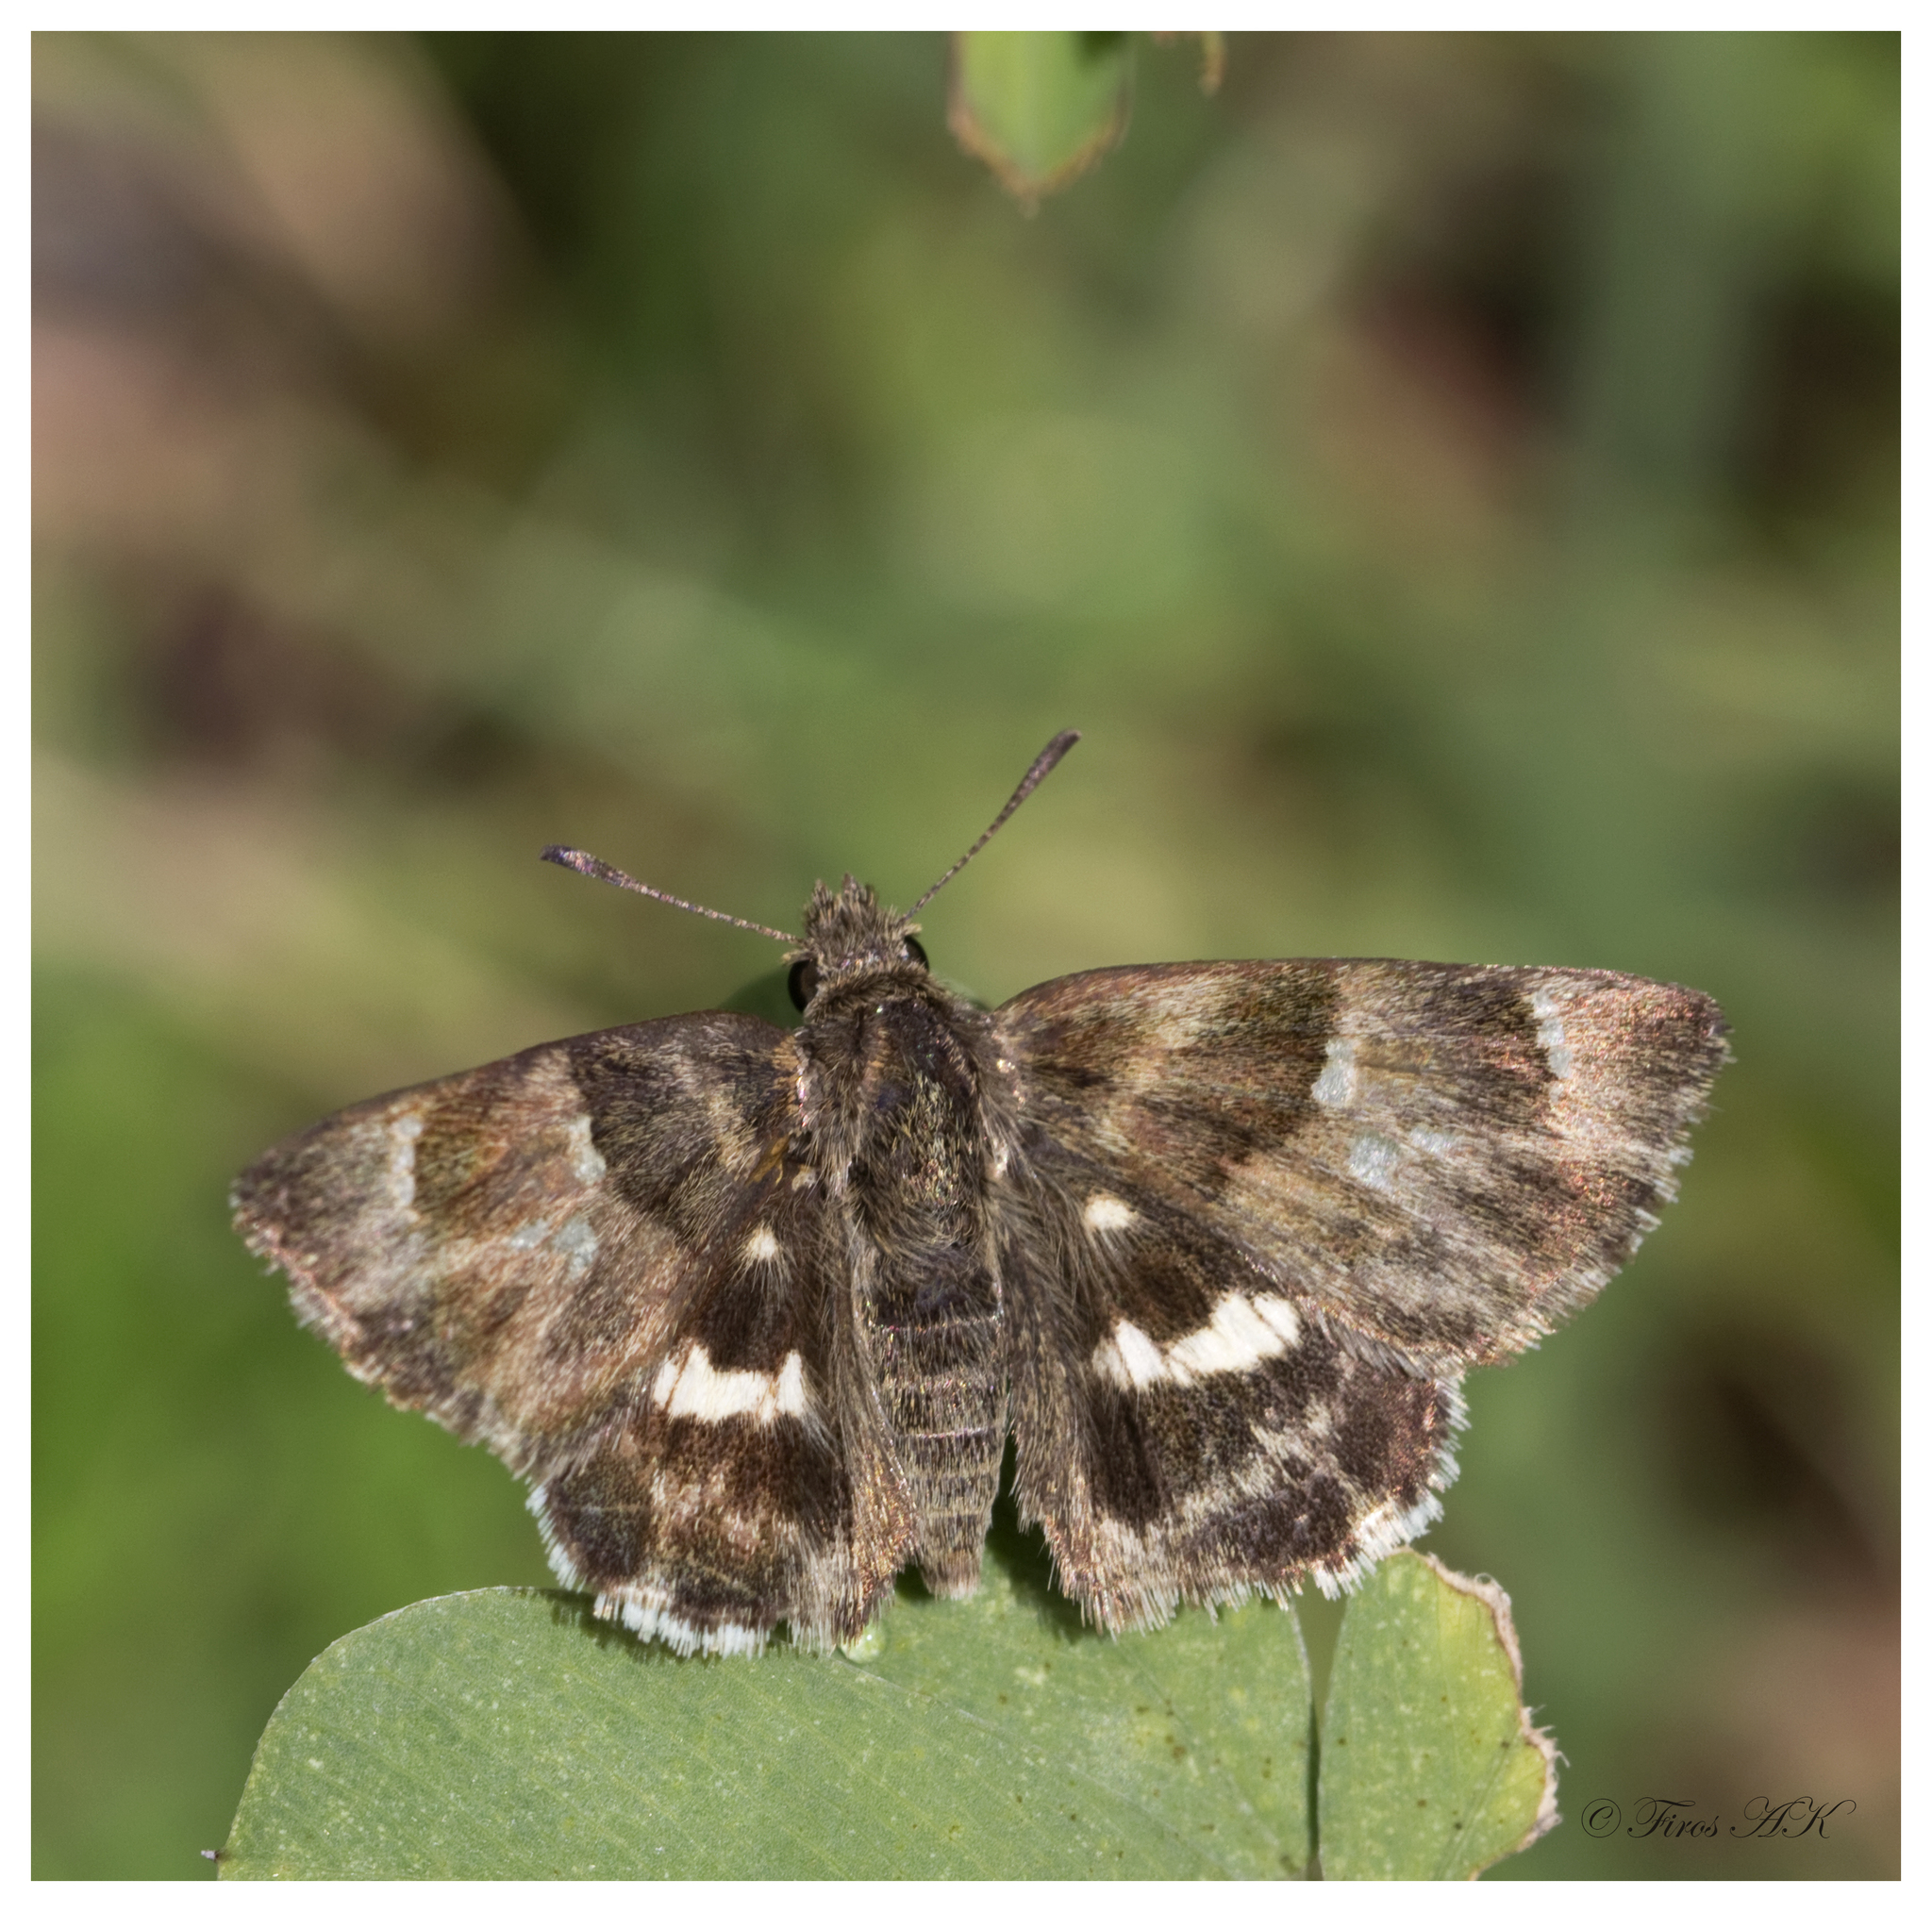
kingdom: Animalia
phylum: Arthropoda
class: Insecta
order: Lepidoptera
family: Hesperiidae
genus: Gomalia
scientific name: Gomalia elma
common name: Green-marbled skipper
